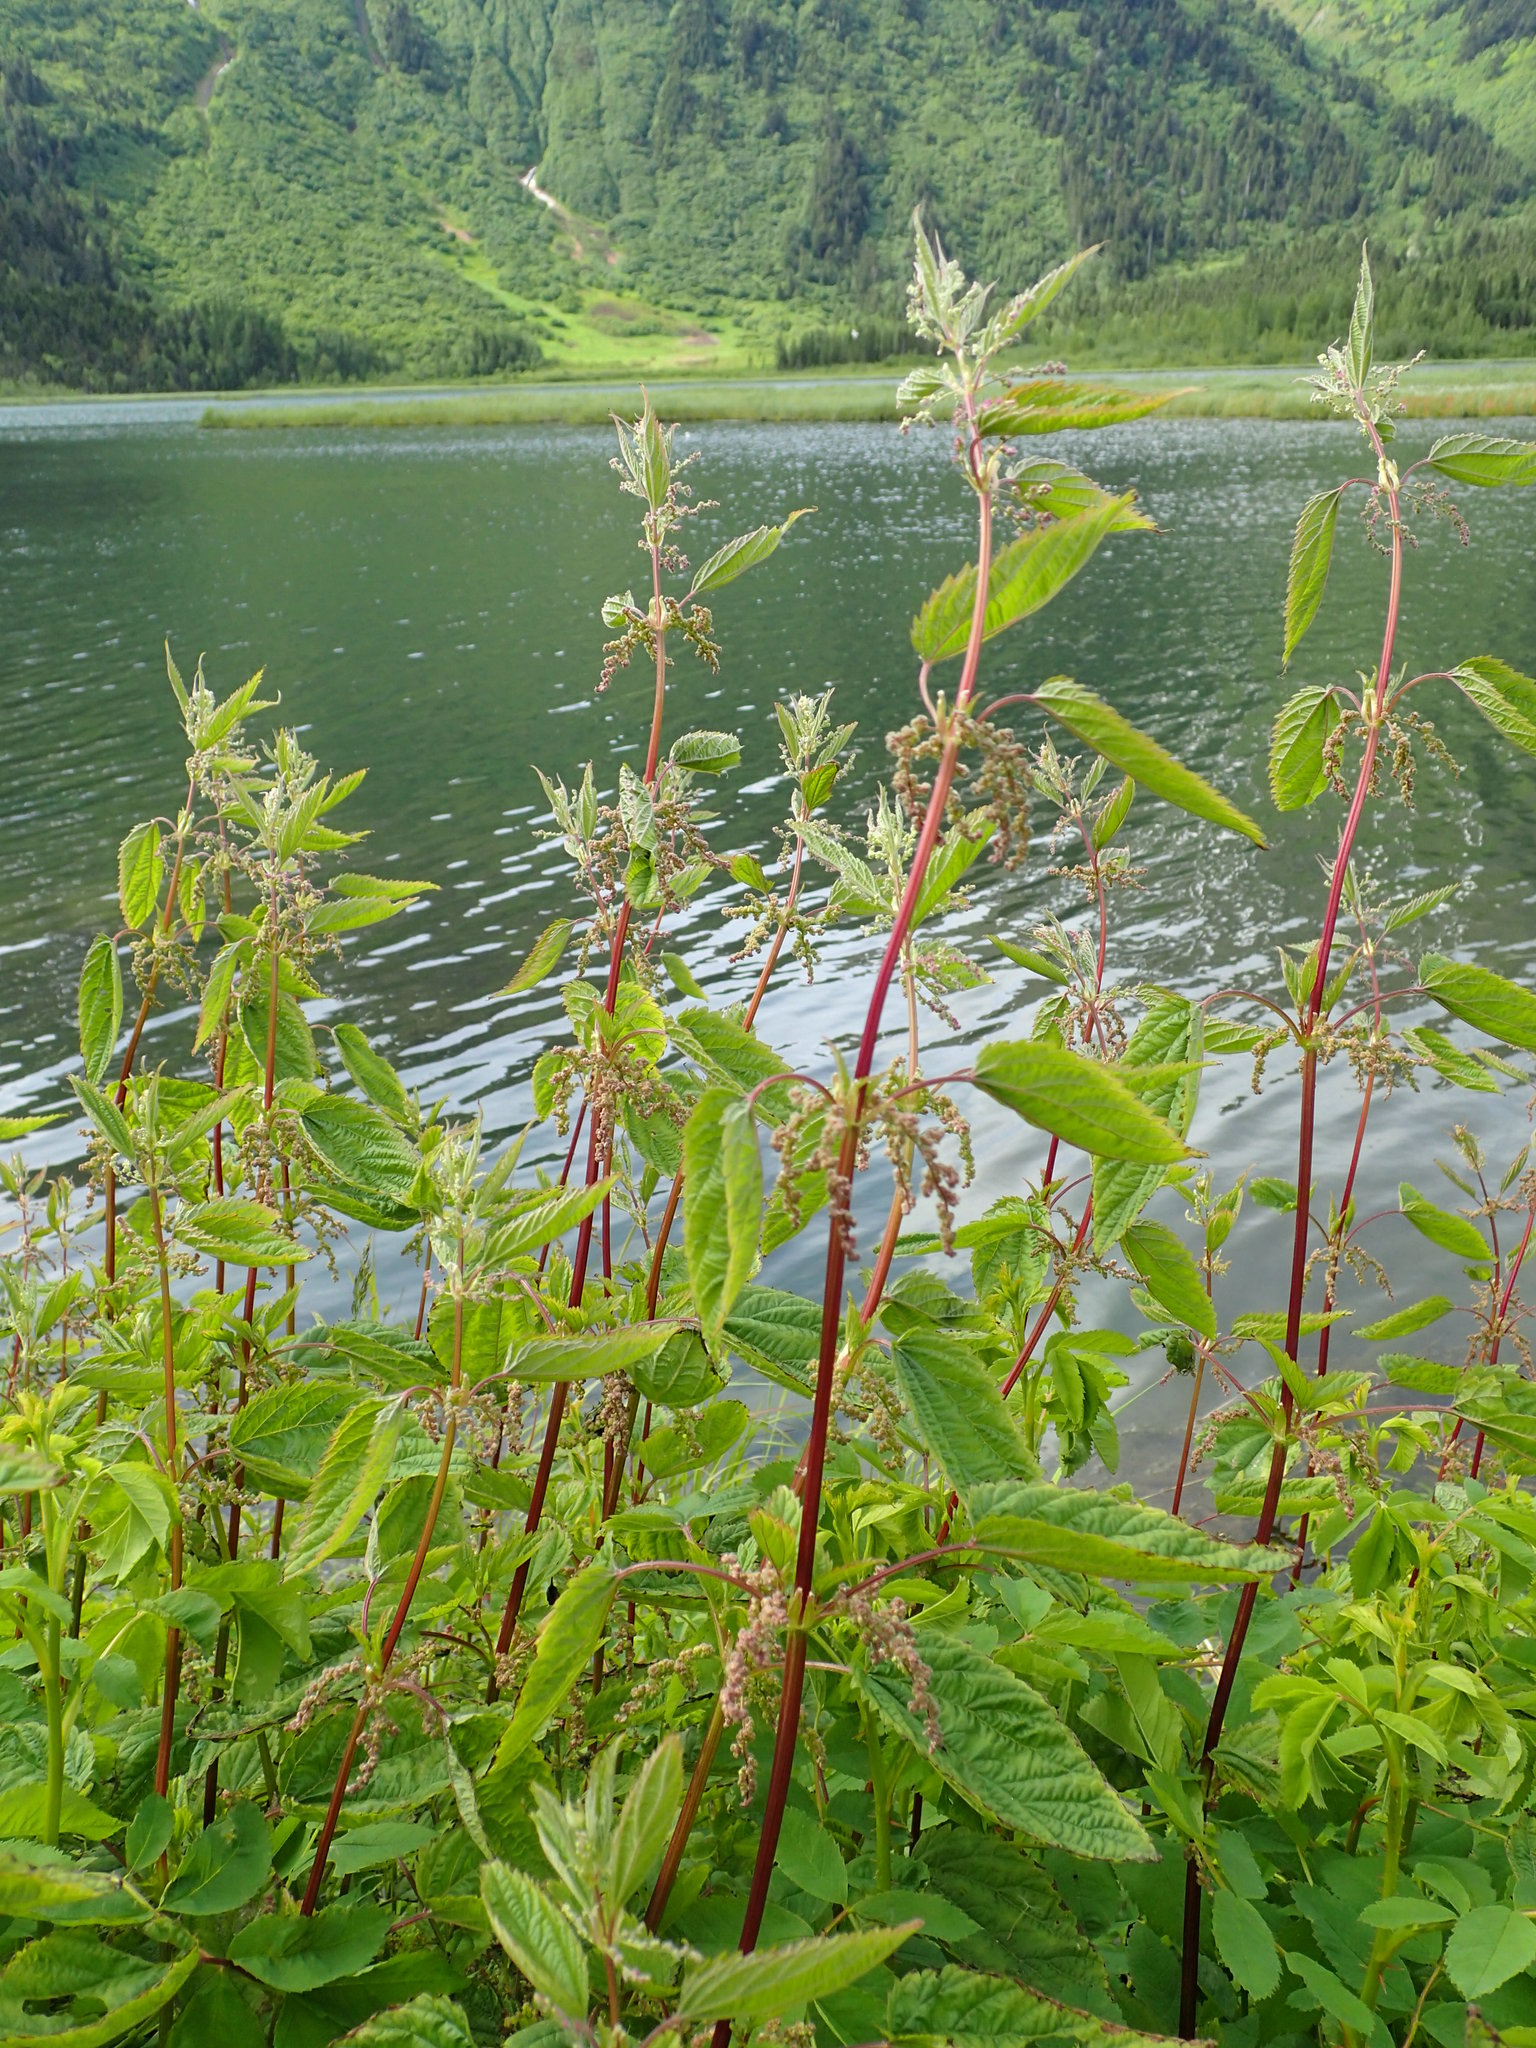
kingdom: Plantae
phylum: Tracheophyta
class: Magnoliopsida
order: Rosales
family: Urticaceae
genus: Urtica
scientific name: Urtica dioica
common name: Common nettle
